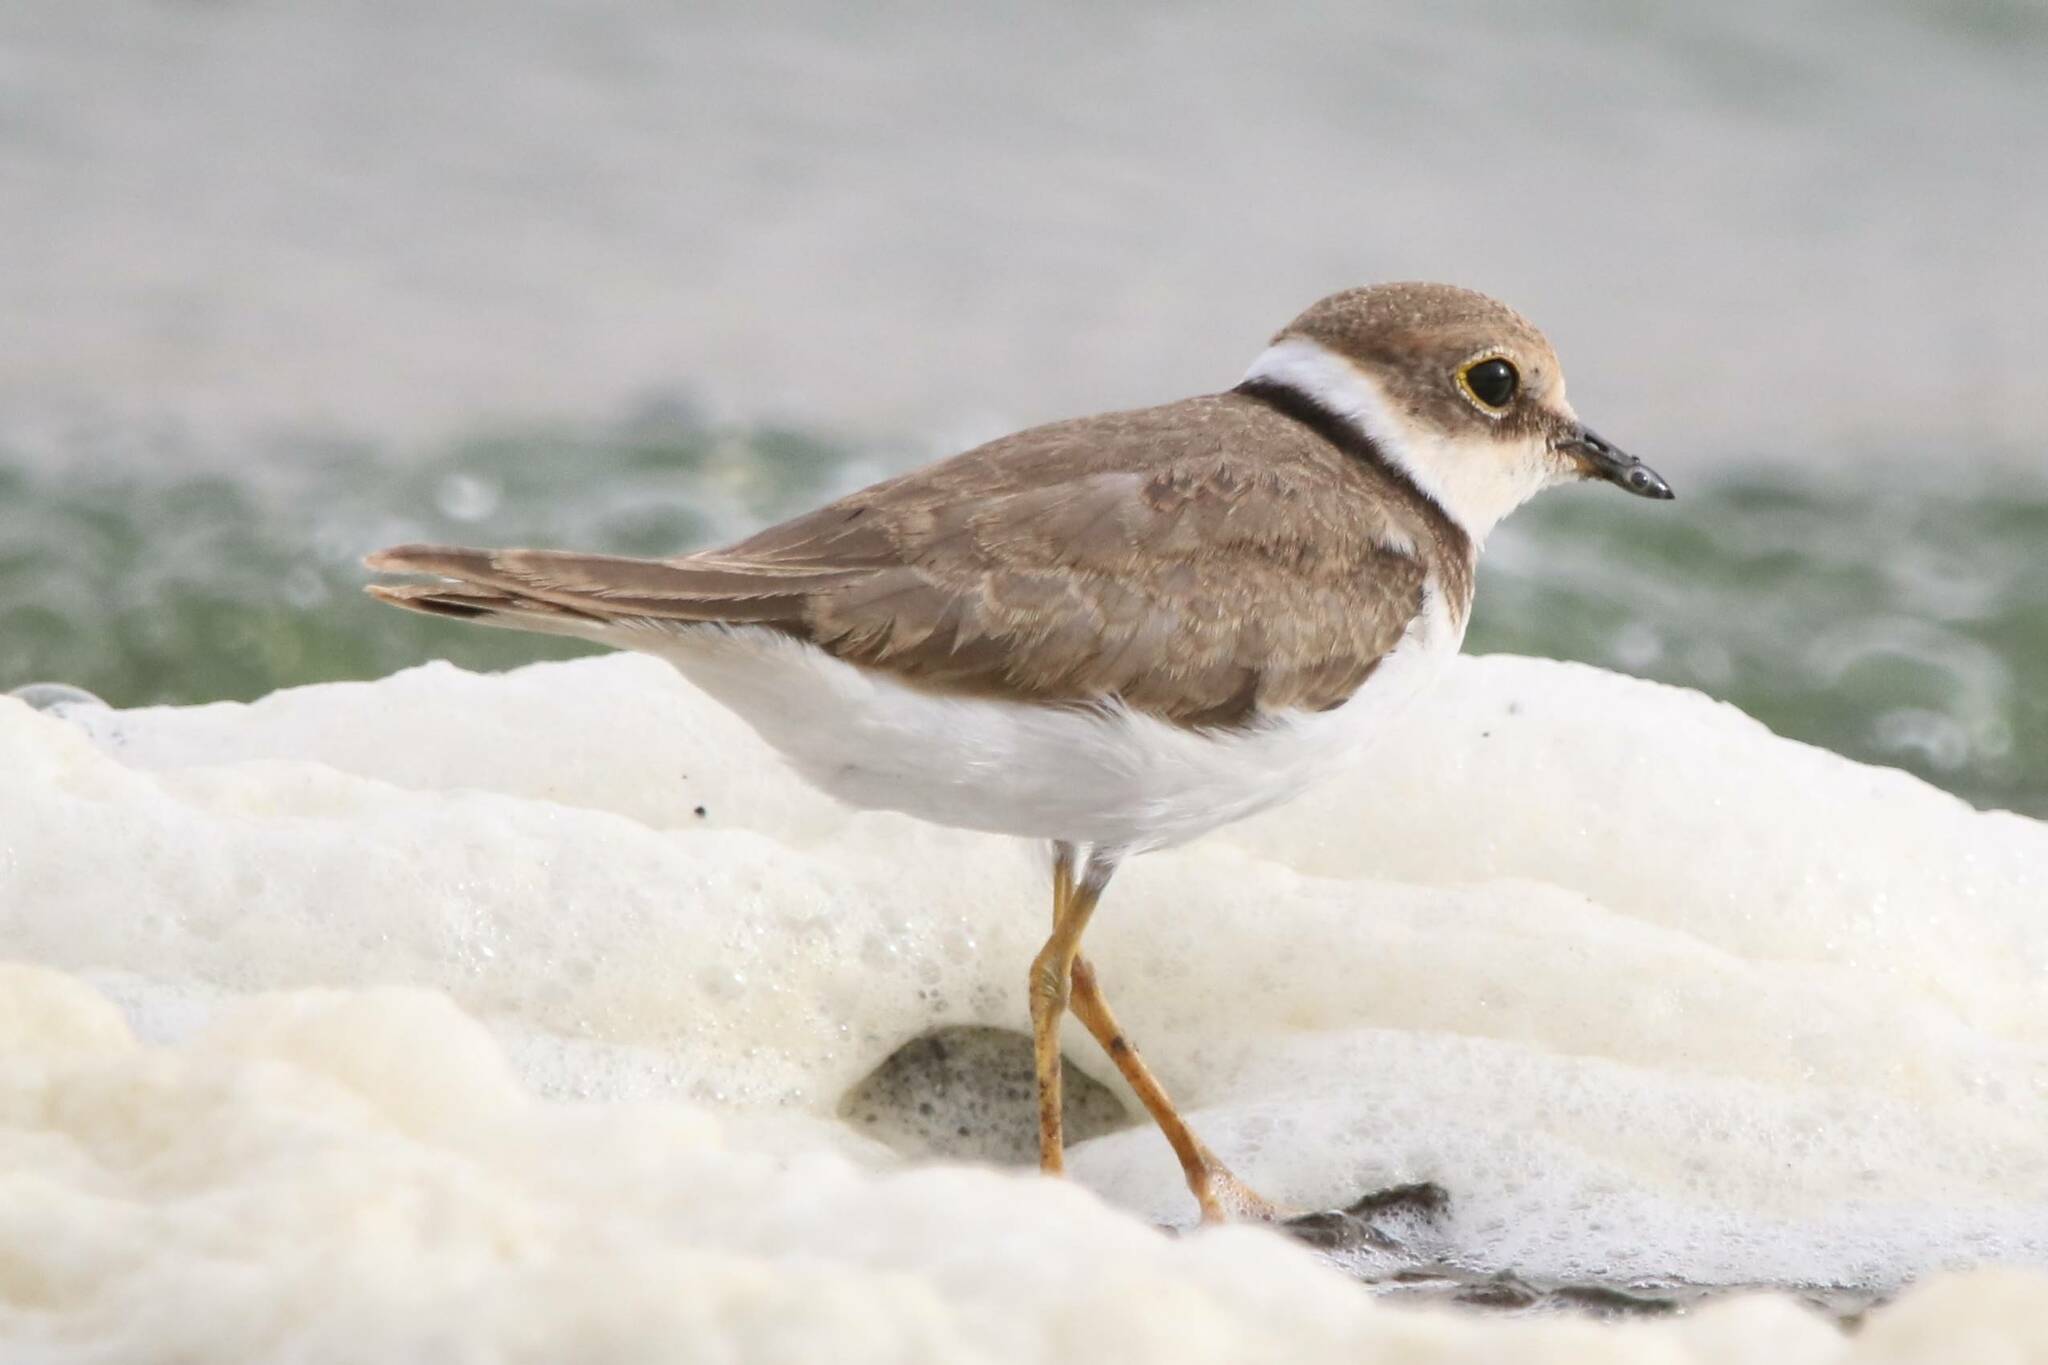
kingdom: Animalia
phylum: Chordata
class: Aves
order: Charadriiformes
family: Charadriidae
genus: Charadrius
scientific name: Charadrius dubius
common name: Little ringed plover
